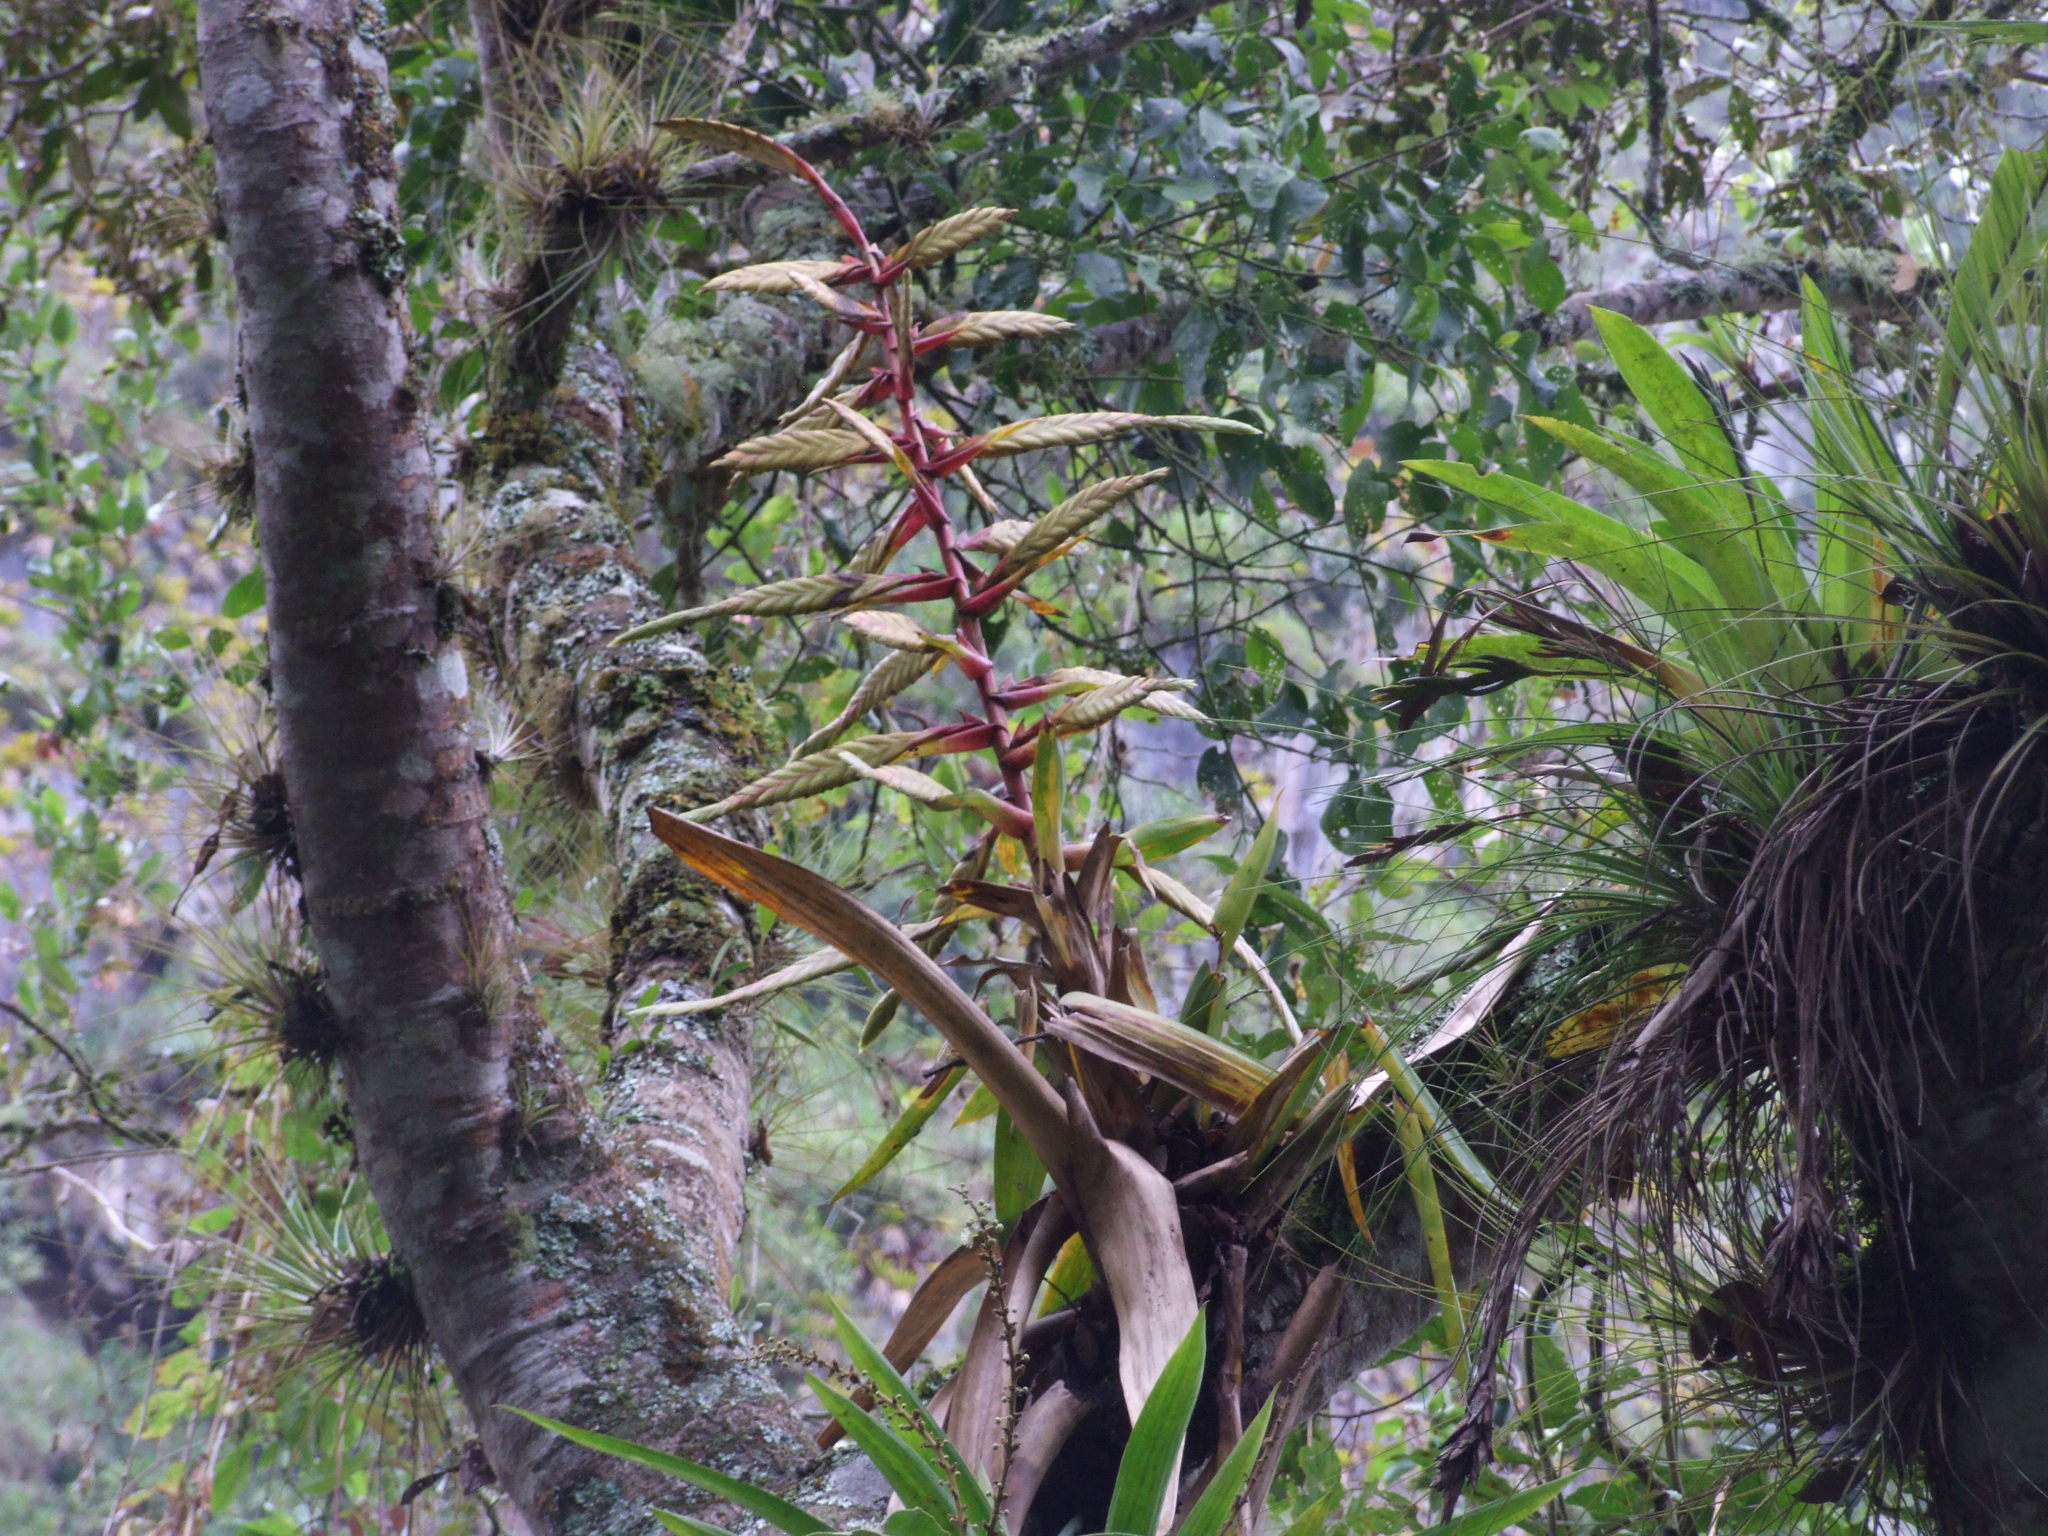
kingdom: Plantae
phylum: Tracheophyta
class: Liliopsida
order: Poales
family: Bromeliaceae
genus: Tillandsia
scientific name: Tillandsia fendleri
